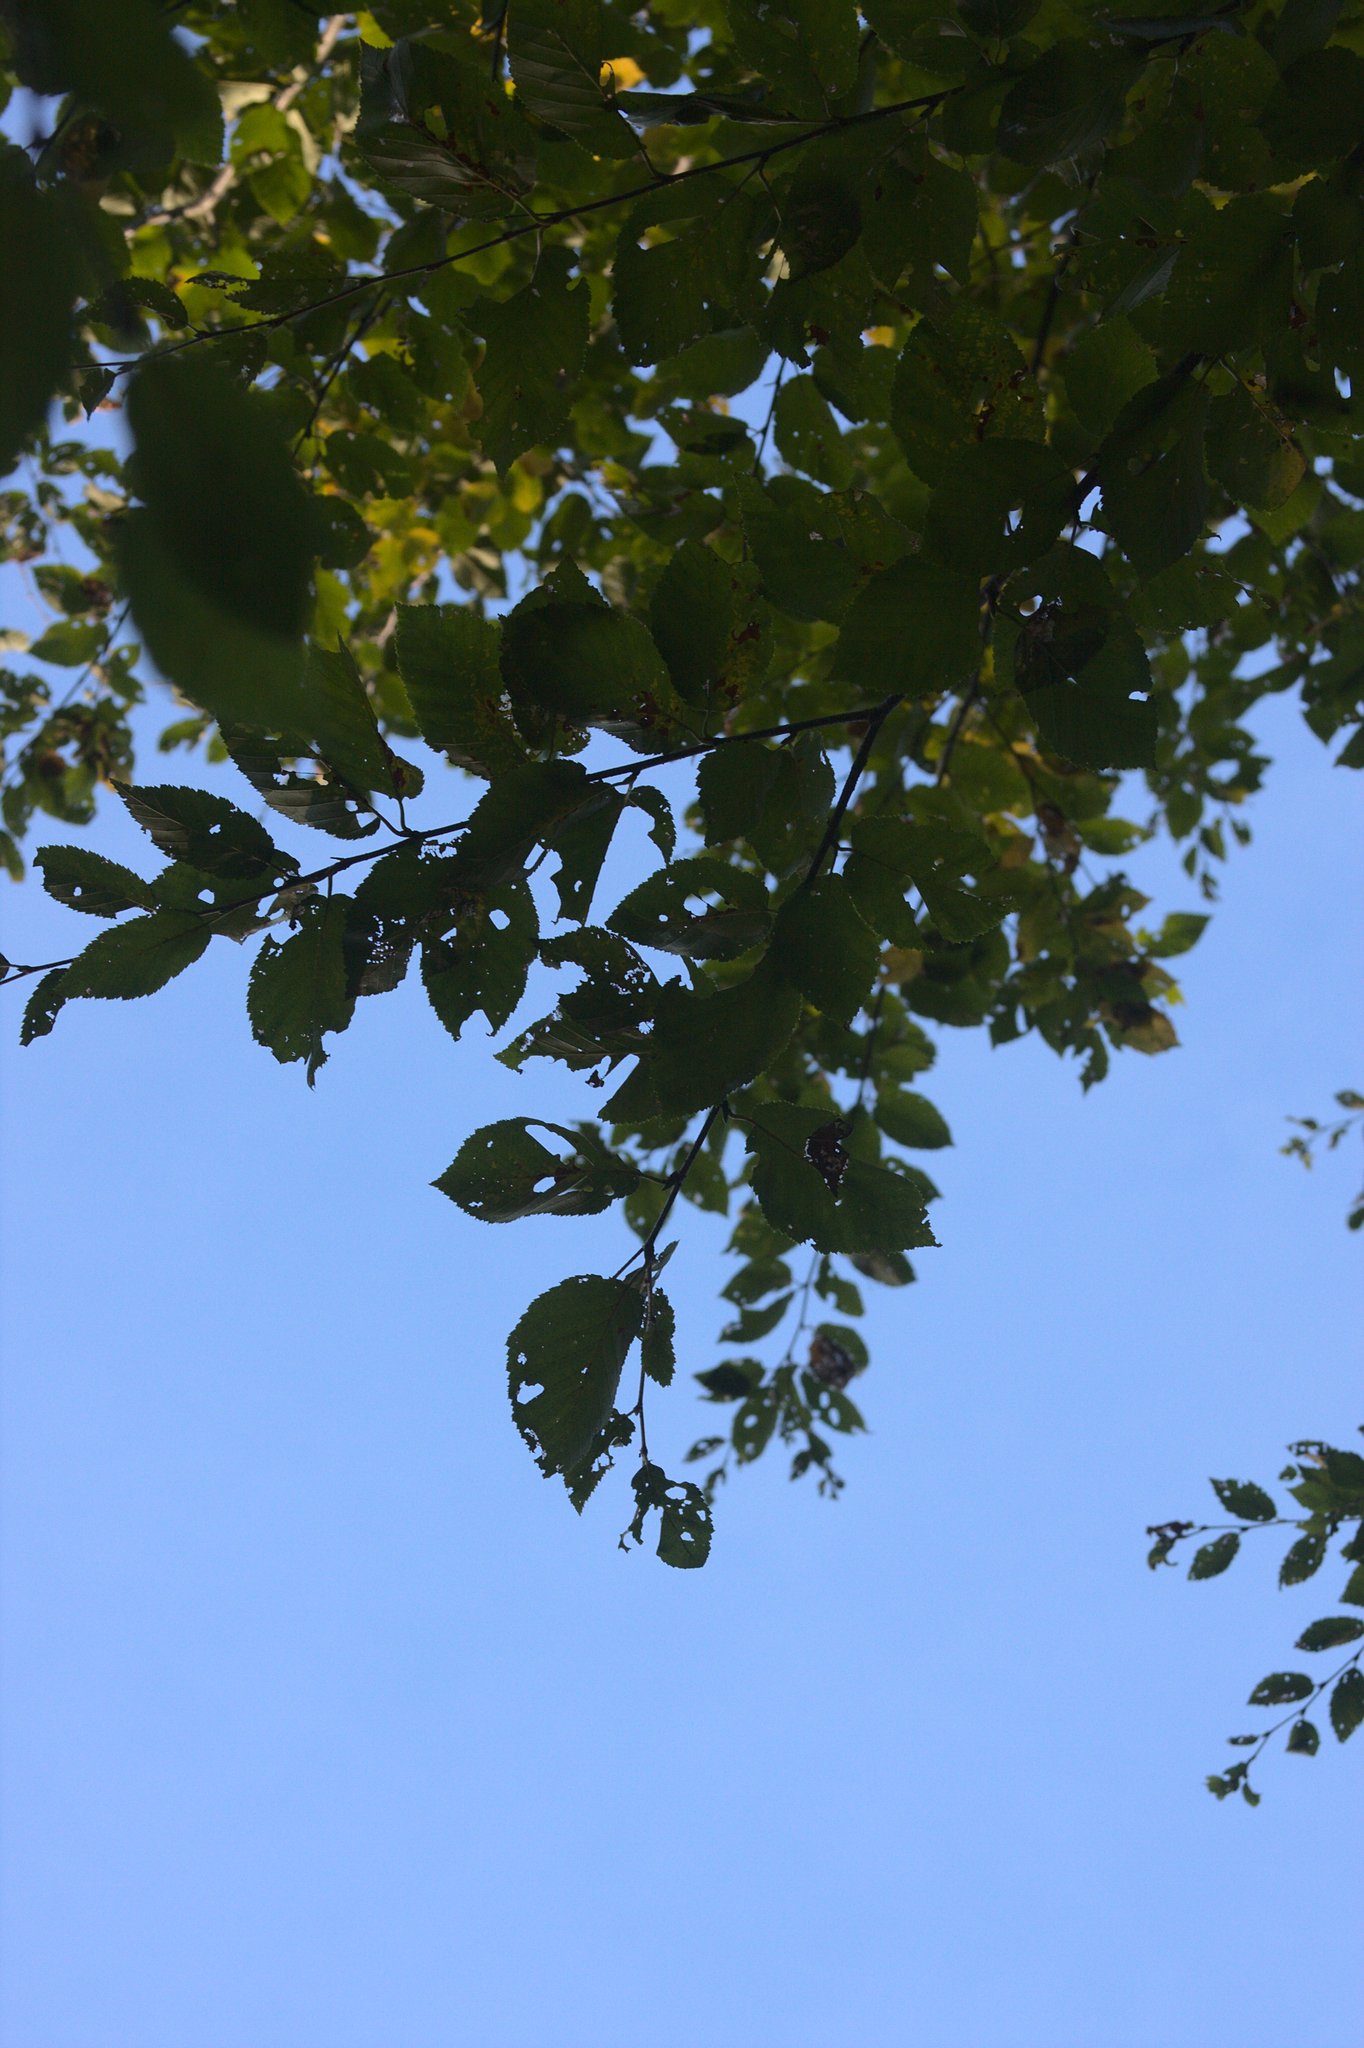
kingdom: Plantae
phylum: Tracheophyta
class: Magnoliopsida
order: Fagales
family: Betulaceae
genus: Betula
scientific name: Betula alleghaniensis
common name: Yellow birch
